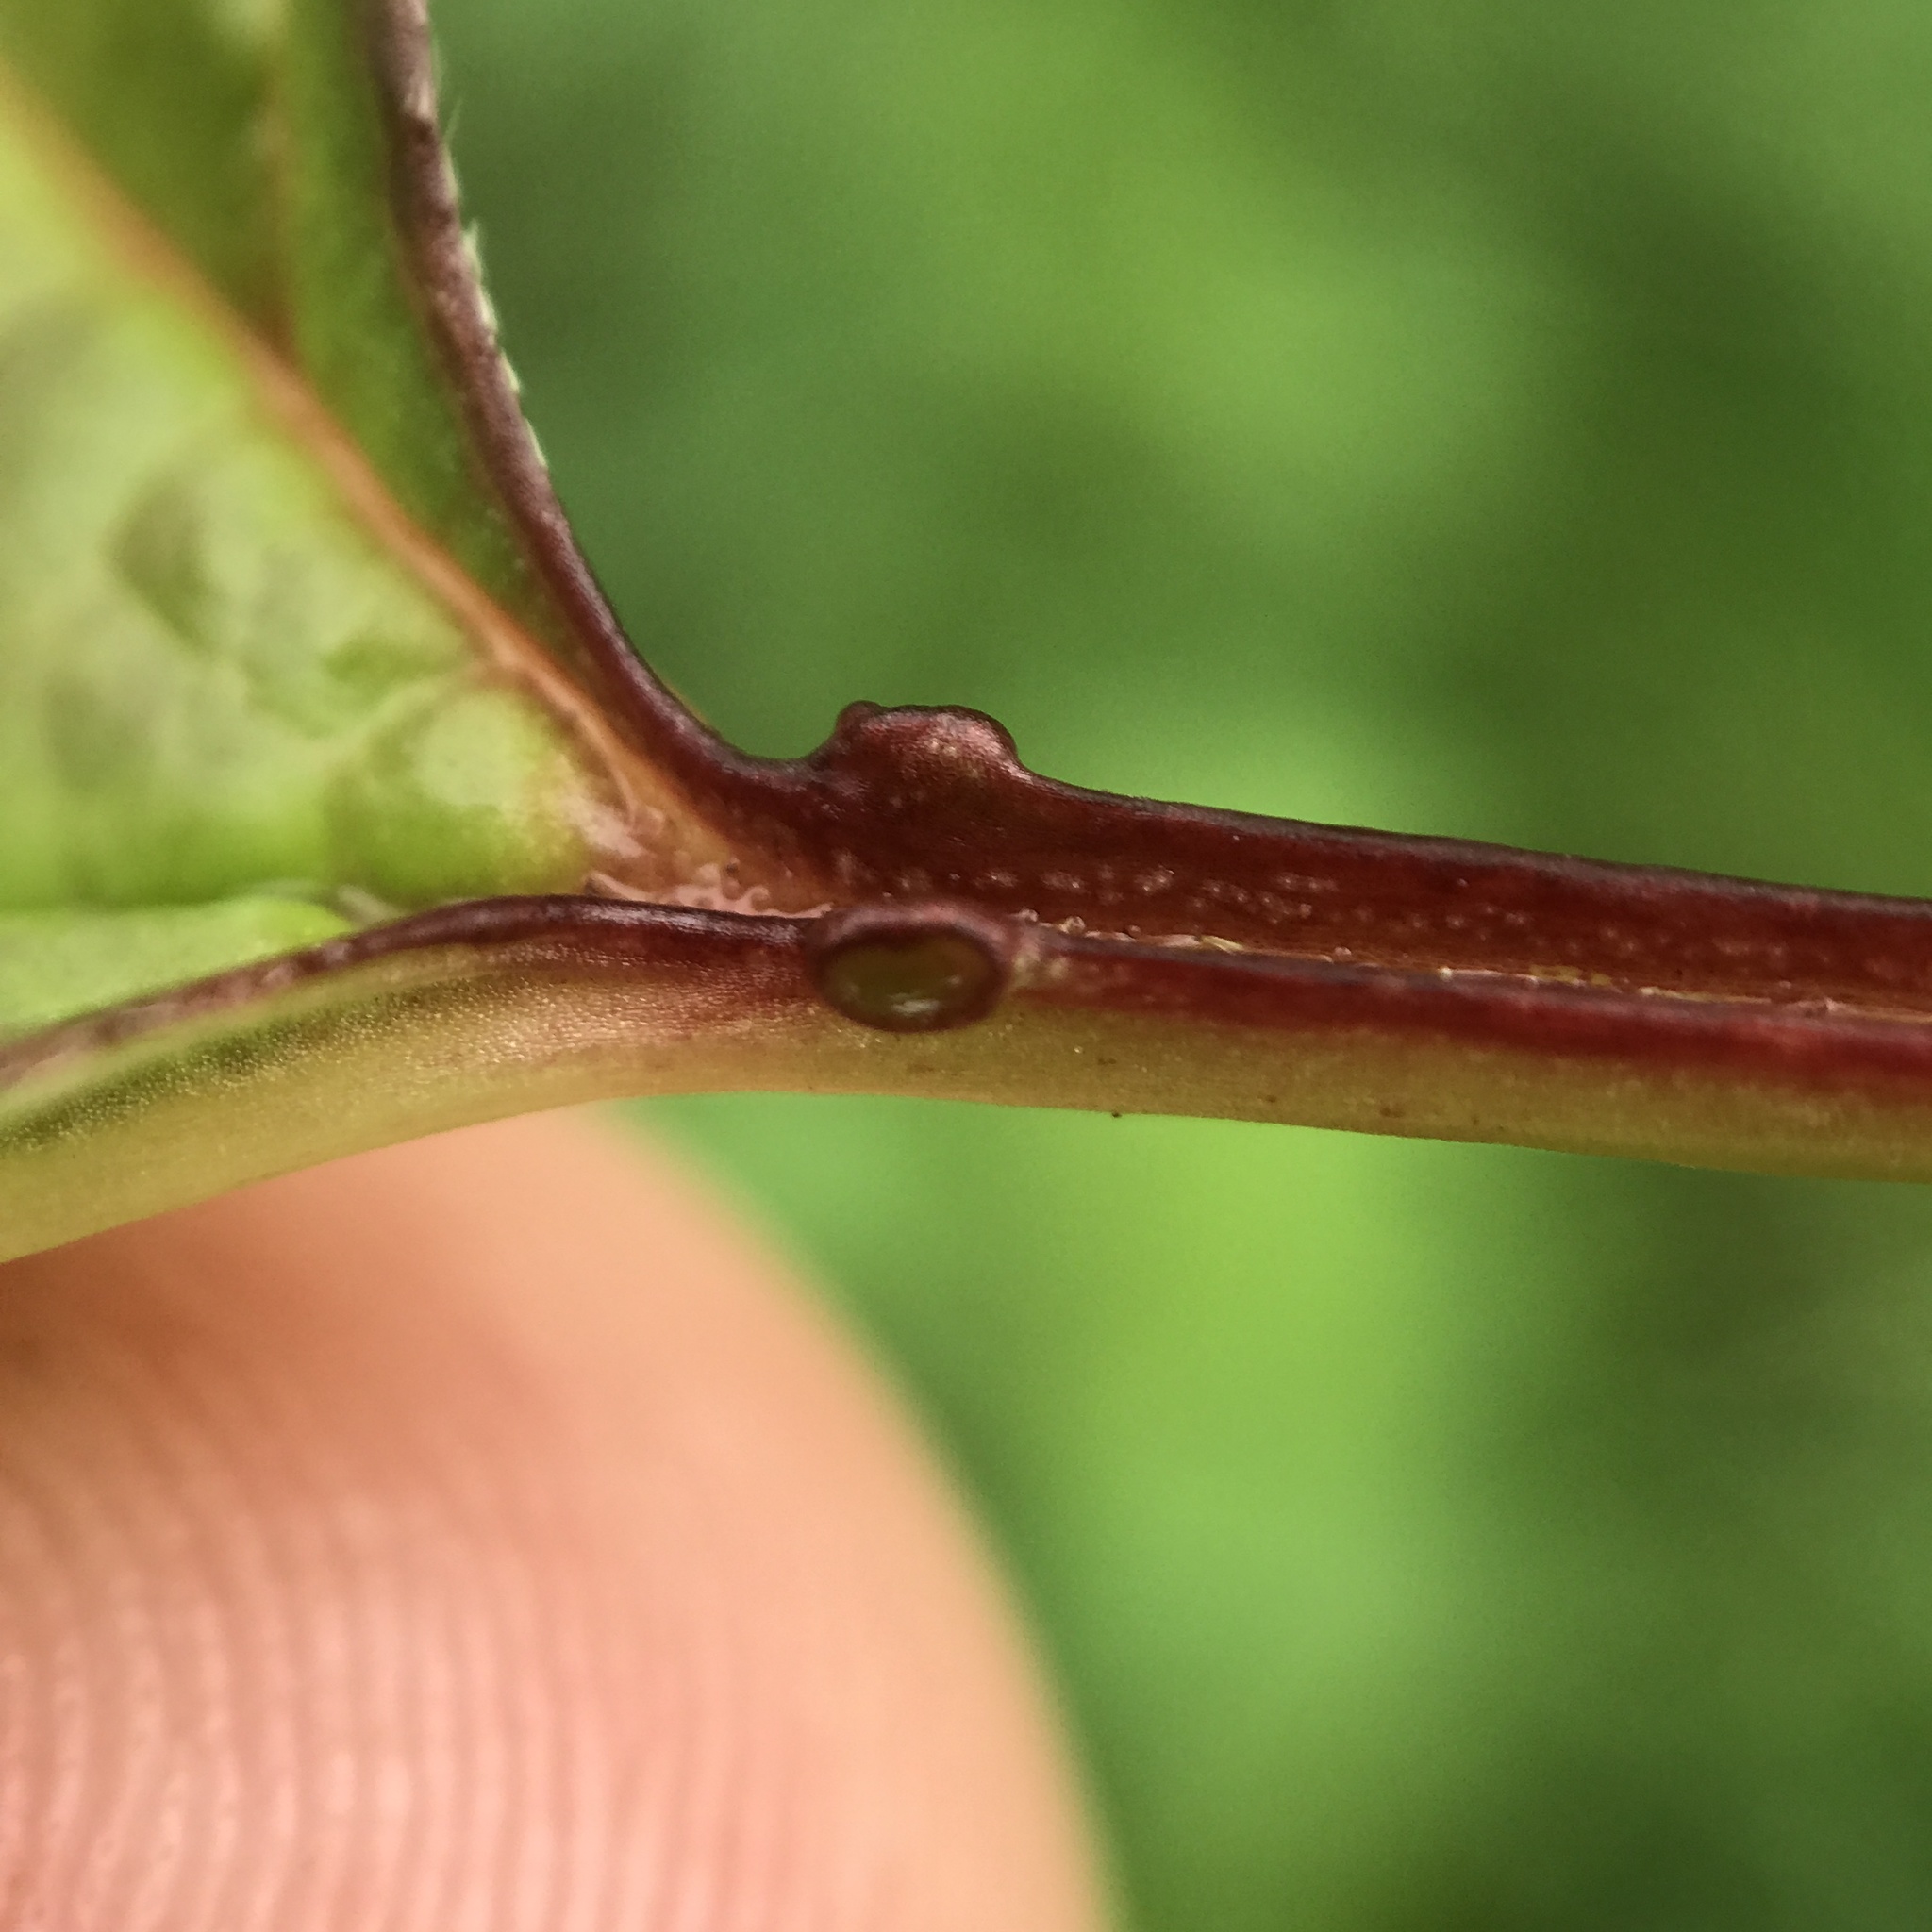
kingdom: Plantae
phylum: Tracheophyta
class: Magnoliopsida
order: Dipsacales
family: Viburnaceae
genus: Viburnum
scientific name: Viburnum opulus
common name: Guelder-rose
